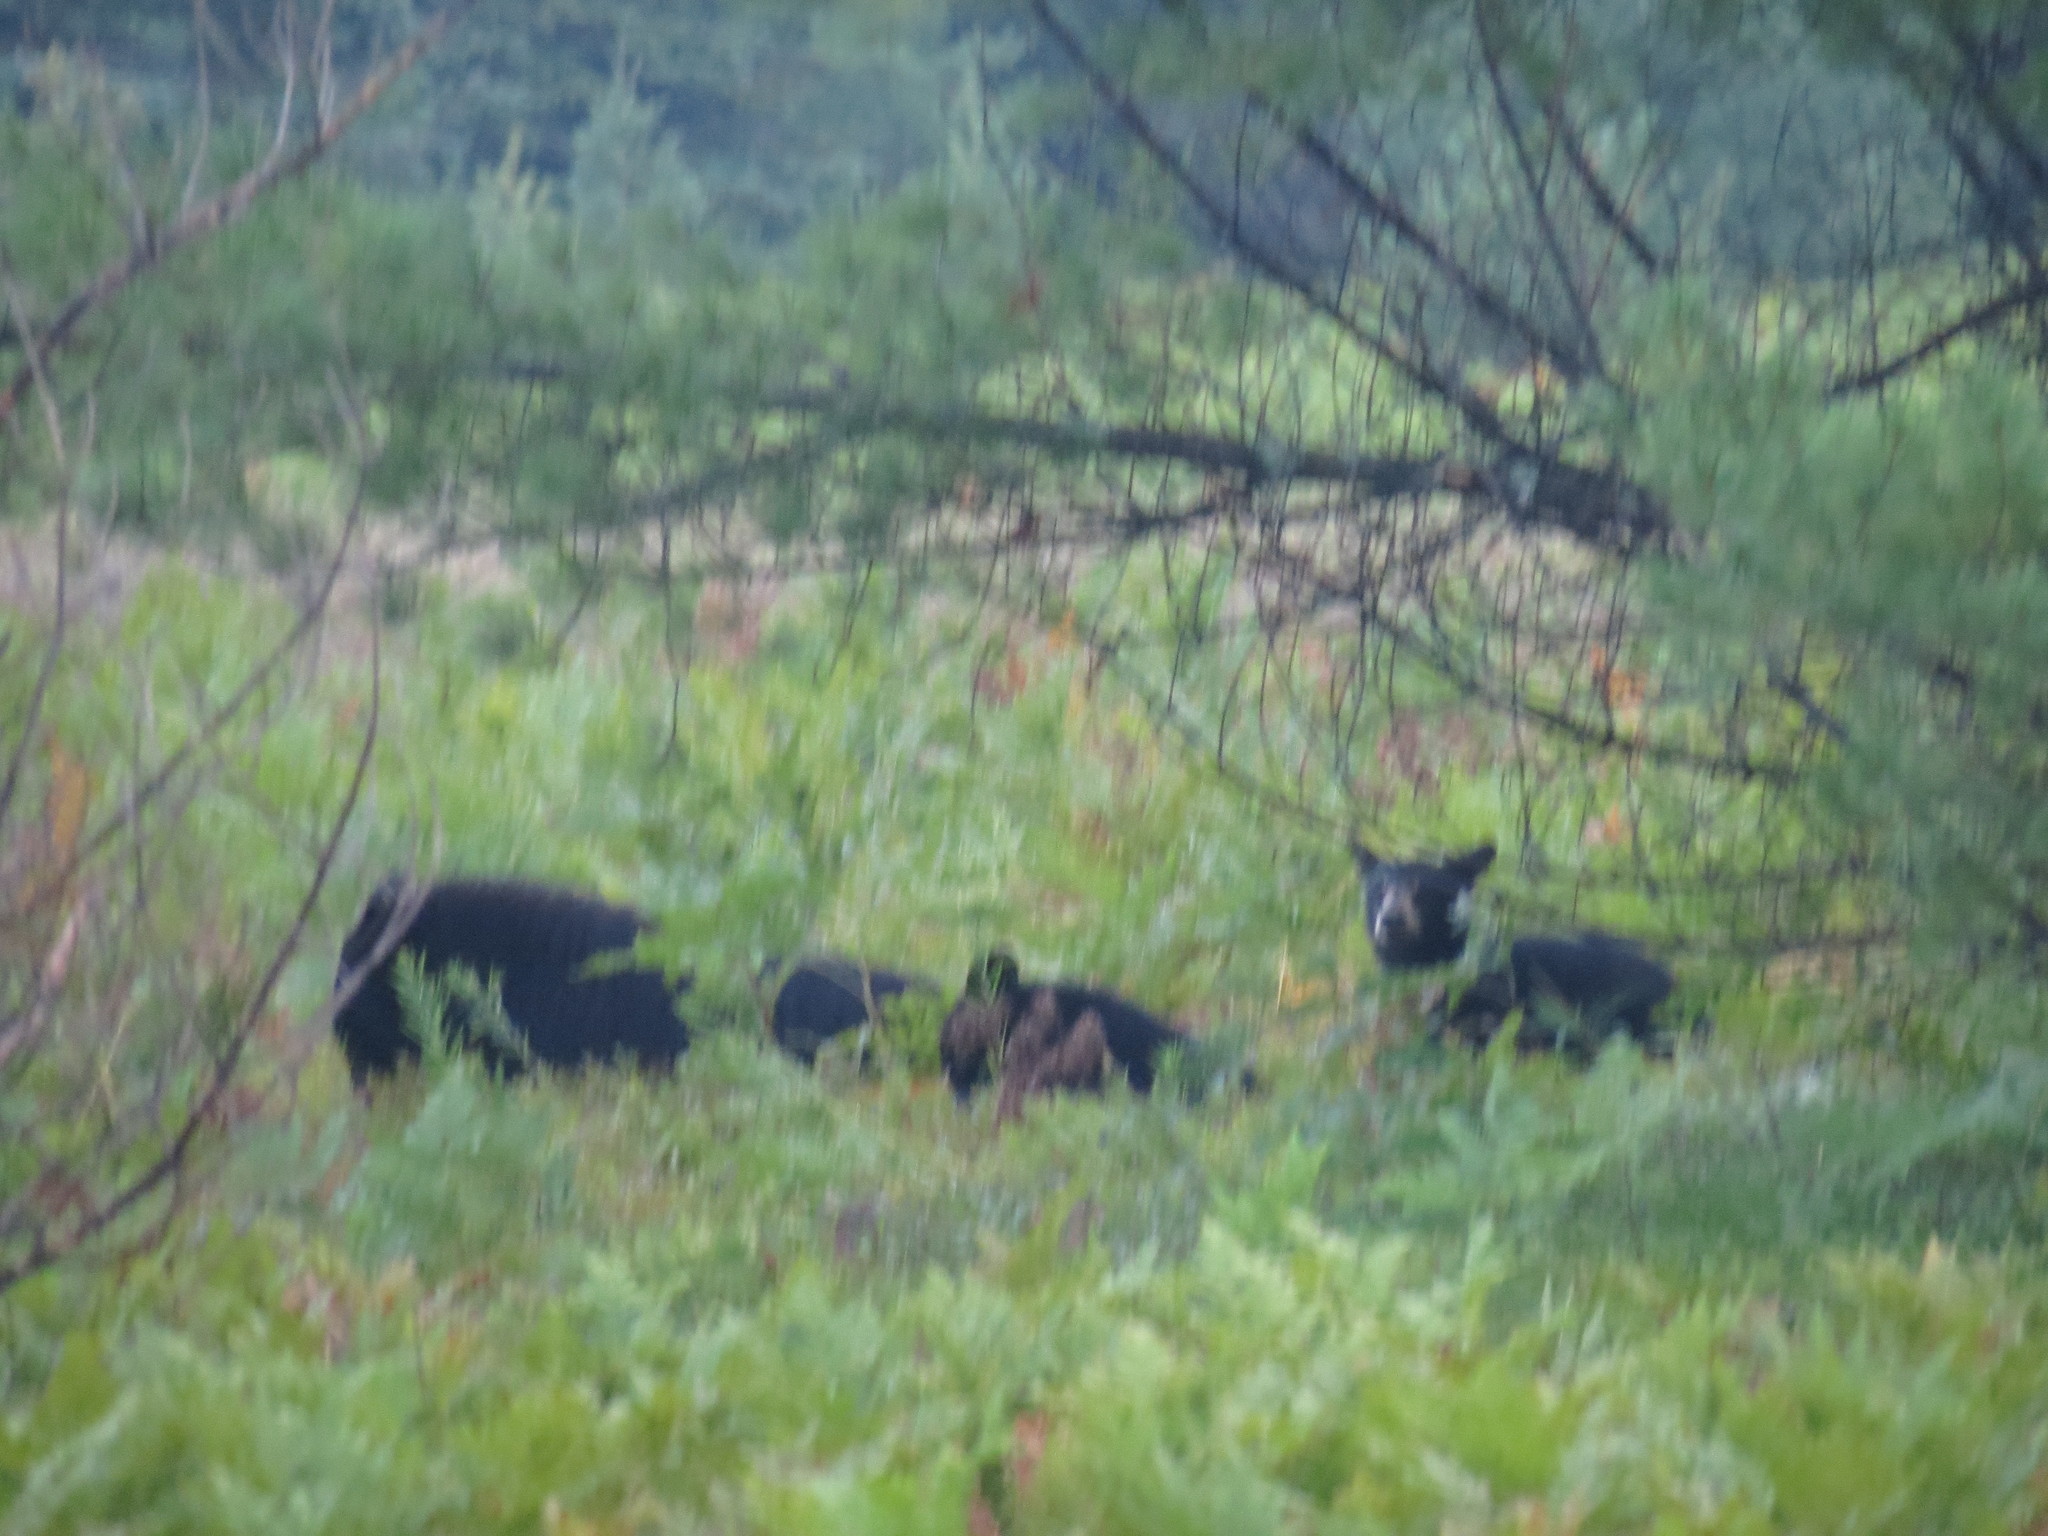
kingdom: Animalia
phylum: Chordata
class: Mammalia
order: Carnivora
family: Ursidae
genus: Ursus
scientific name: Ursus americanus
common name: American black bear
